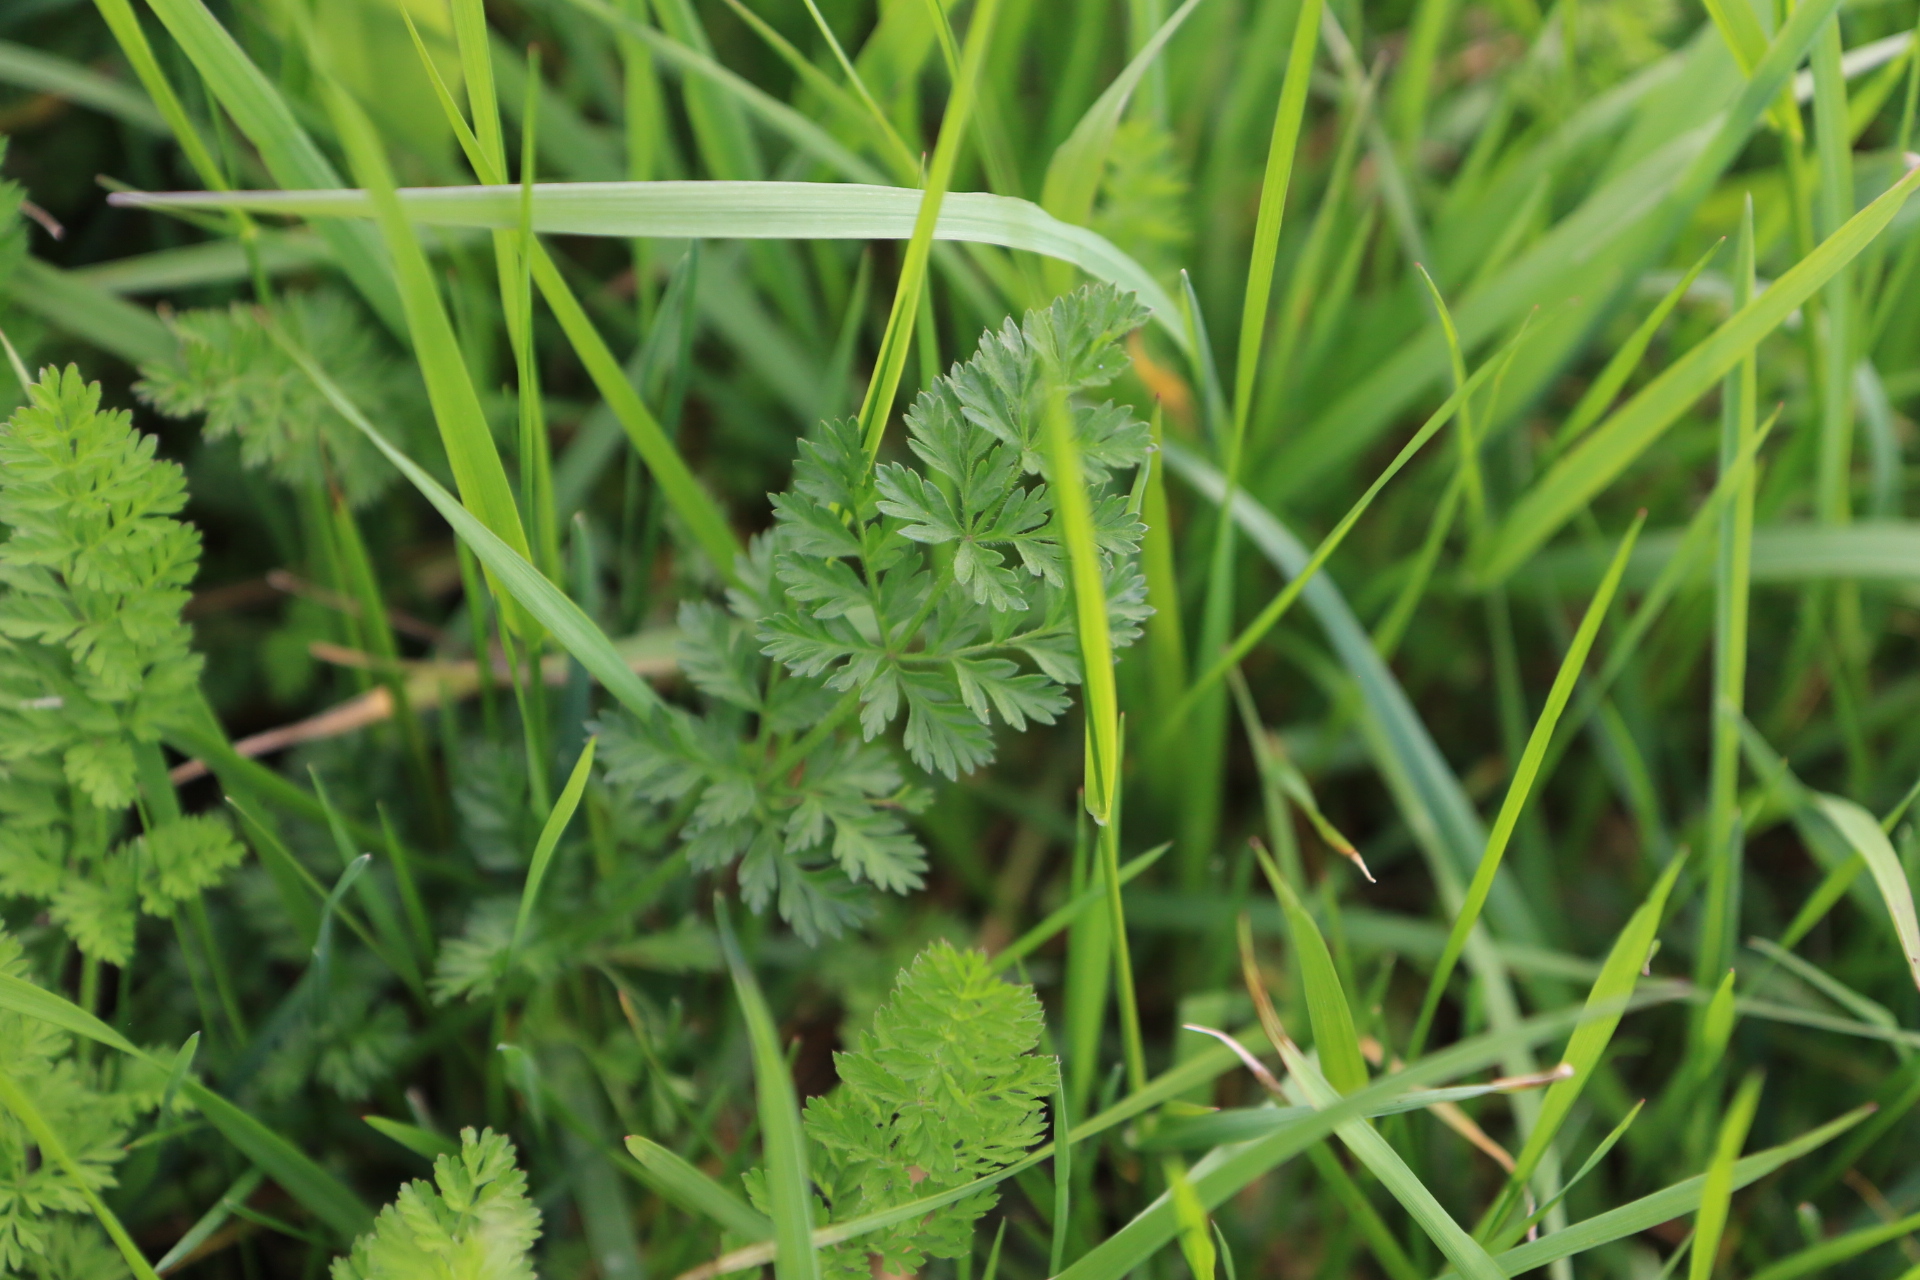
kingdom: Plantae
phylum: Tracheophyta
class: Magnoliopsida
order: Apiales
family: Apiaceae
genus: Daucus
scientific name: Daucus carota
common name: Wild carrot
